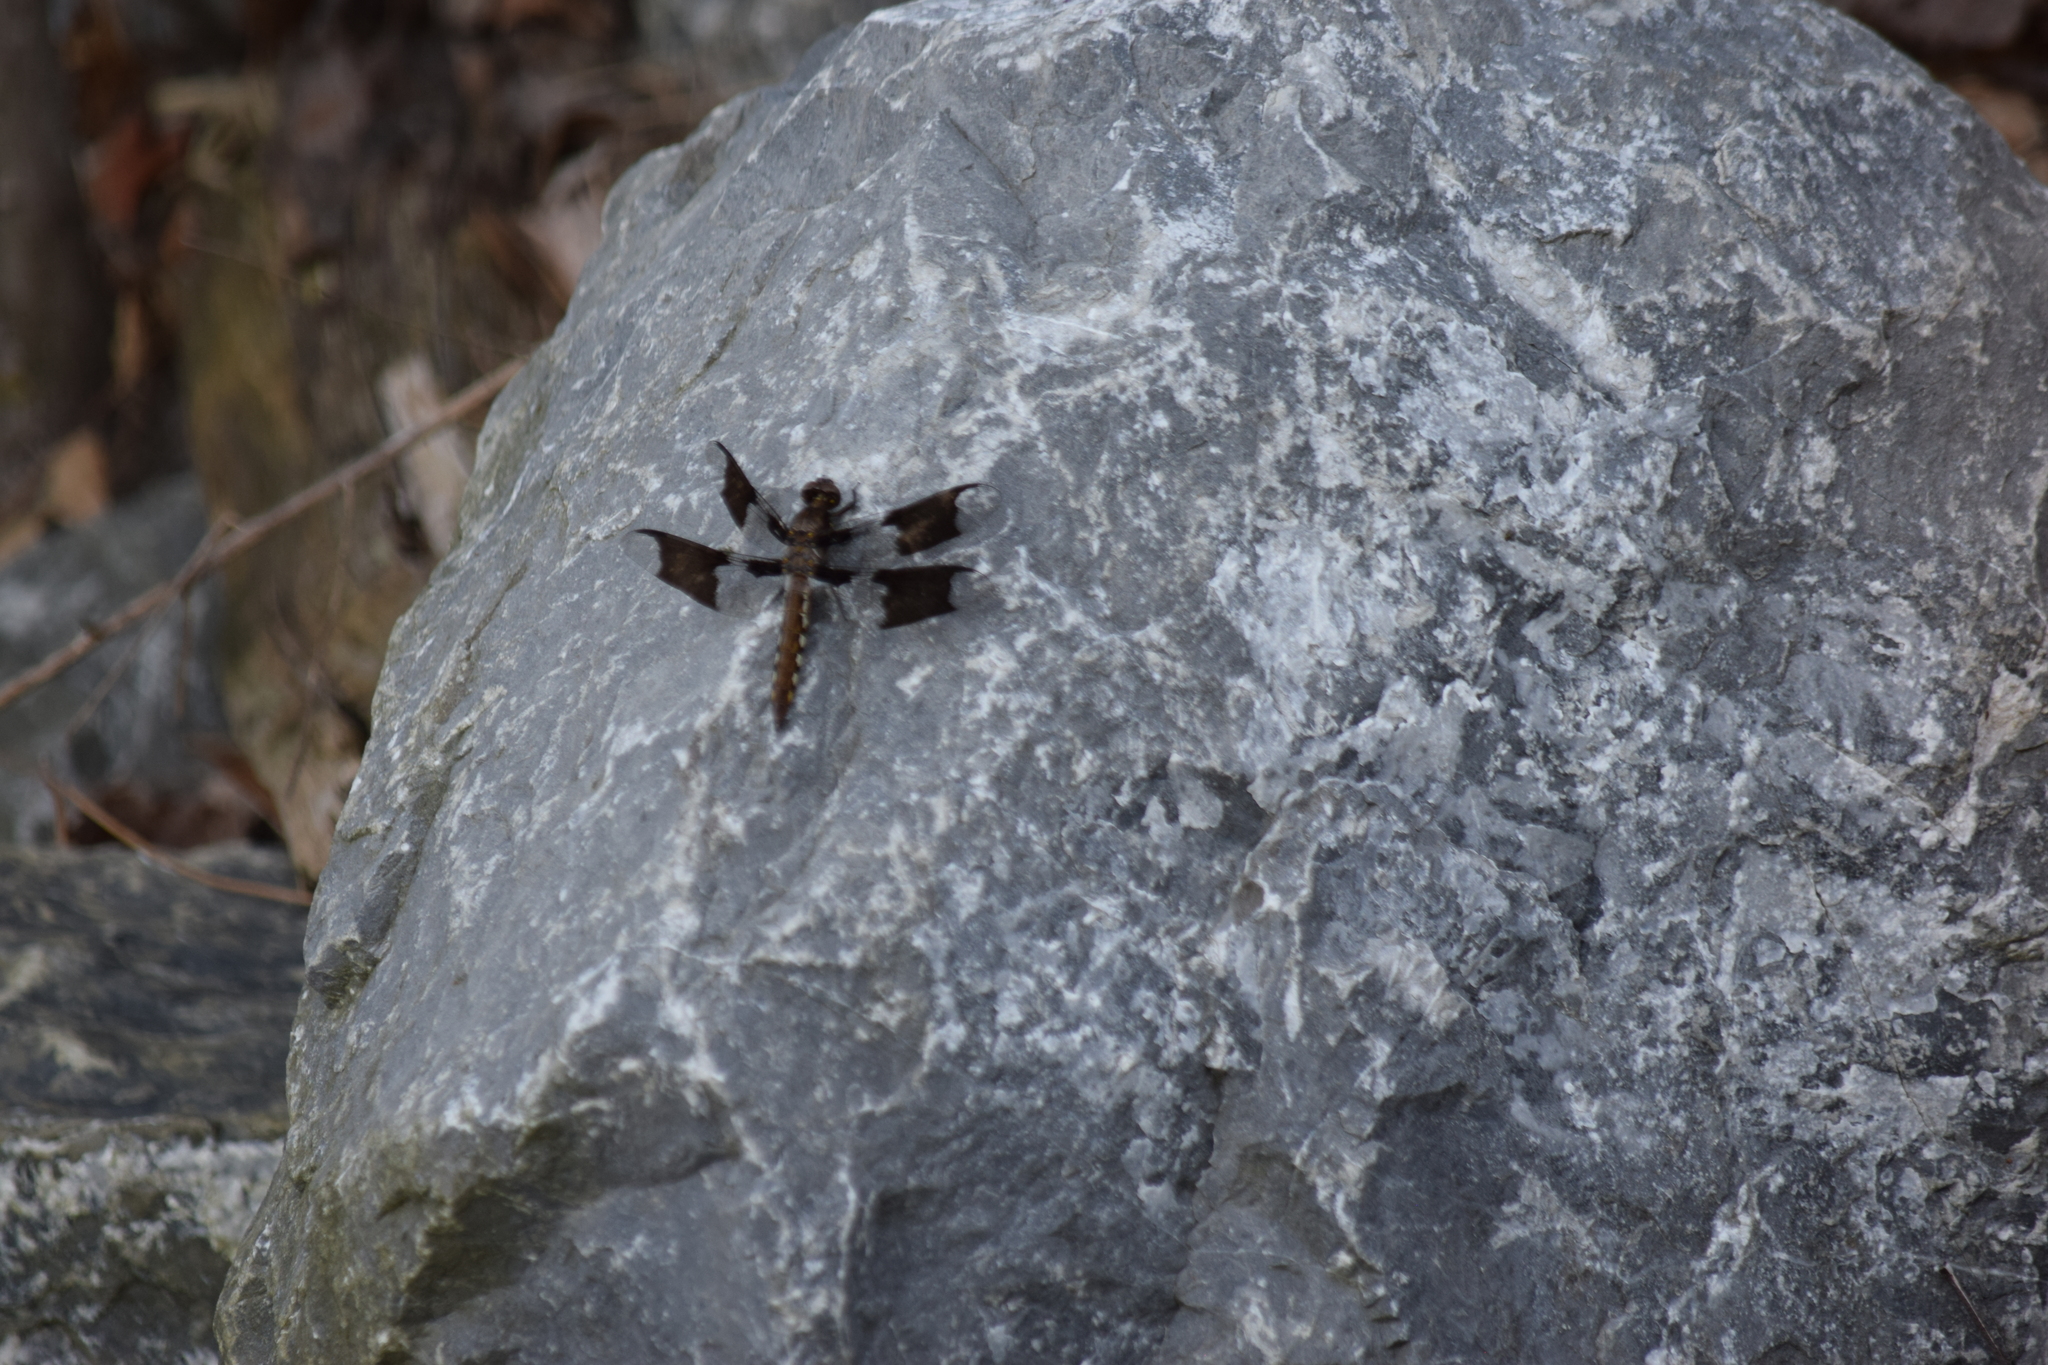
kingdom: Animalia
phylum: Arthropoda
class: Insecta
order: Odonata
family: Libellulidae
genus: Plathemis
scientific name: Plathemis lydia
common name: Common whitetail
